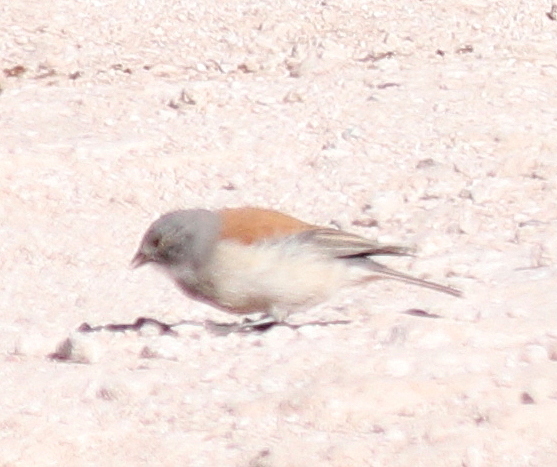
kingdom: Animalia
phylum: Chordata
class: Aves
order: Passeriformes
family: Thraupidae
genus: Idiopsar
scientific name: Idiopsar dorsalis
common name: Red-backed sierra finch
